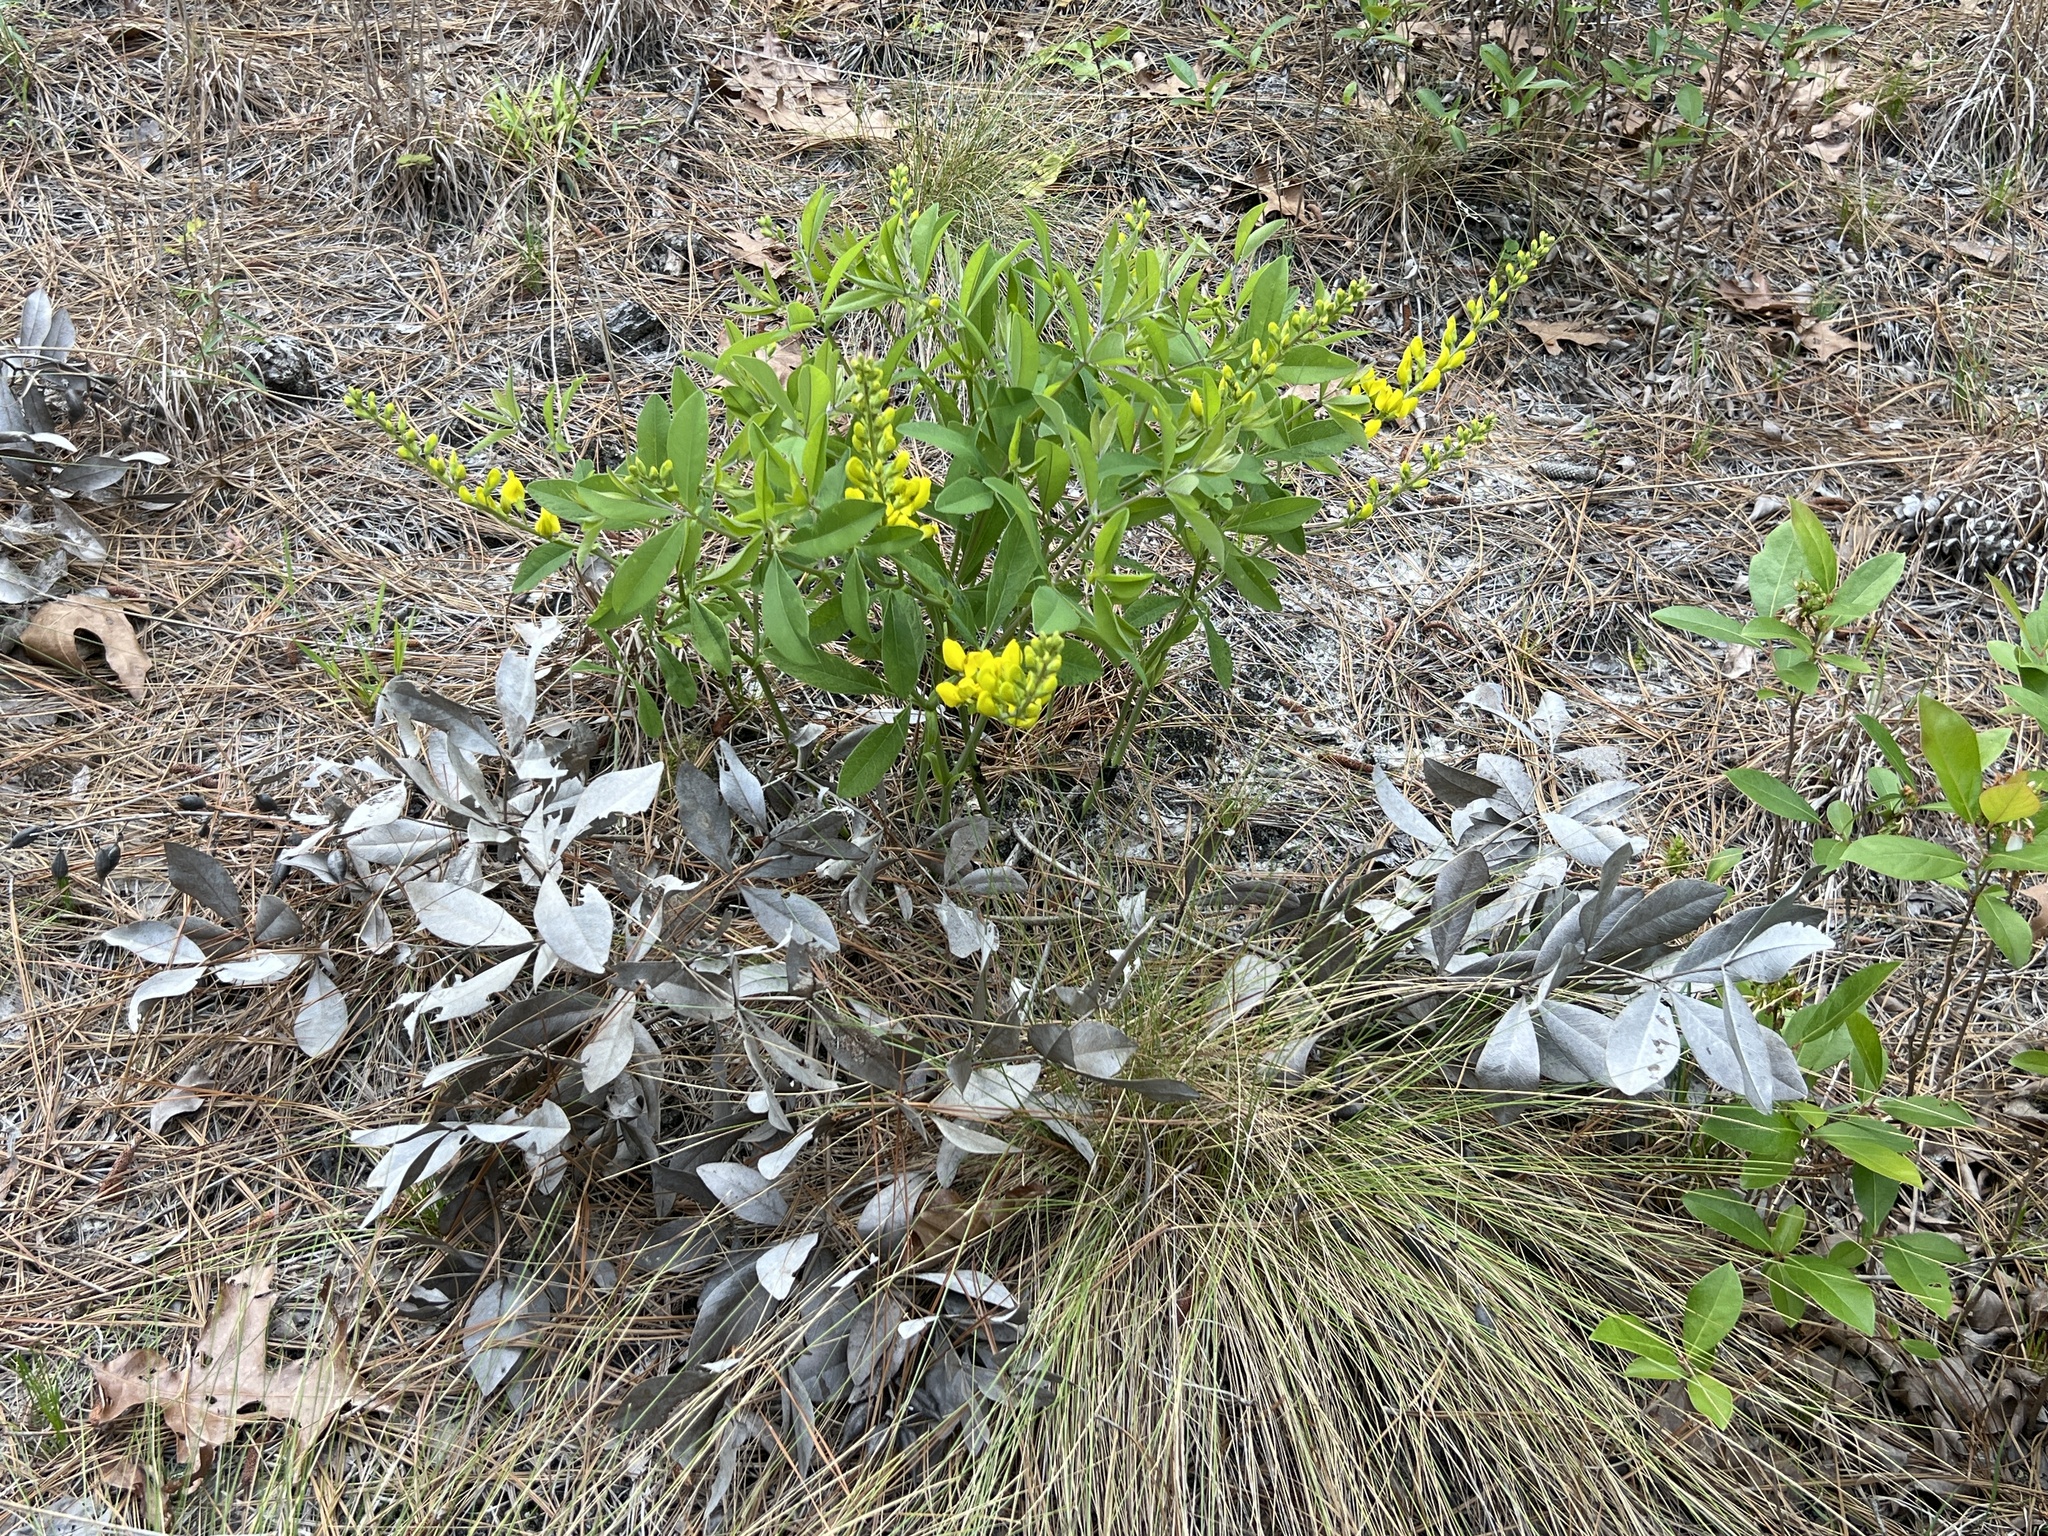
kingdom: Plantae
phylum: Tracheophyta
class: Magnoliopsida
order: Fabales
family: Fabaceae
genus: Baptisia
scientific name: Baptisia cinerea
